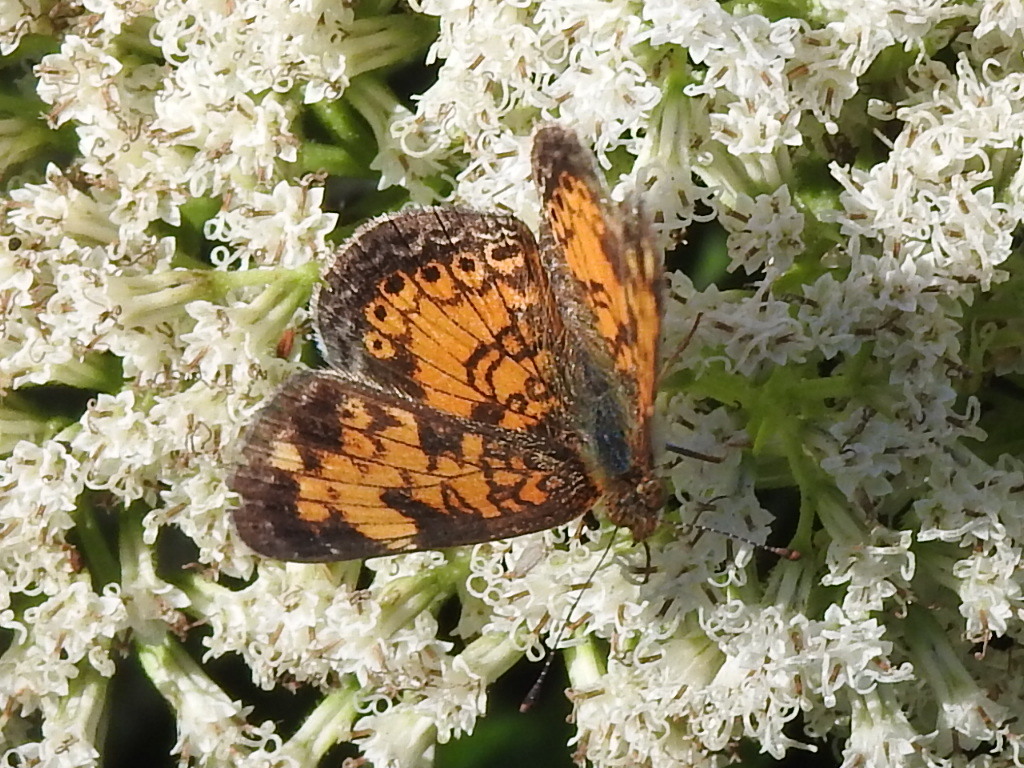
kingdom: Animalia
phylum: Arthropoda
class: Insecta
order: Lepidoptera
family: Nymphalidae
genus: Phyciodes
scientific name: Phyciodes tharos
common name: Pearl crescent
